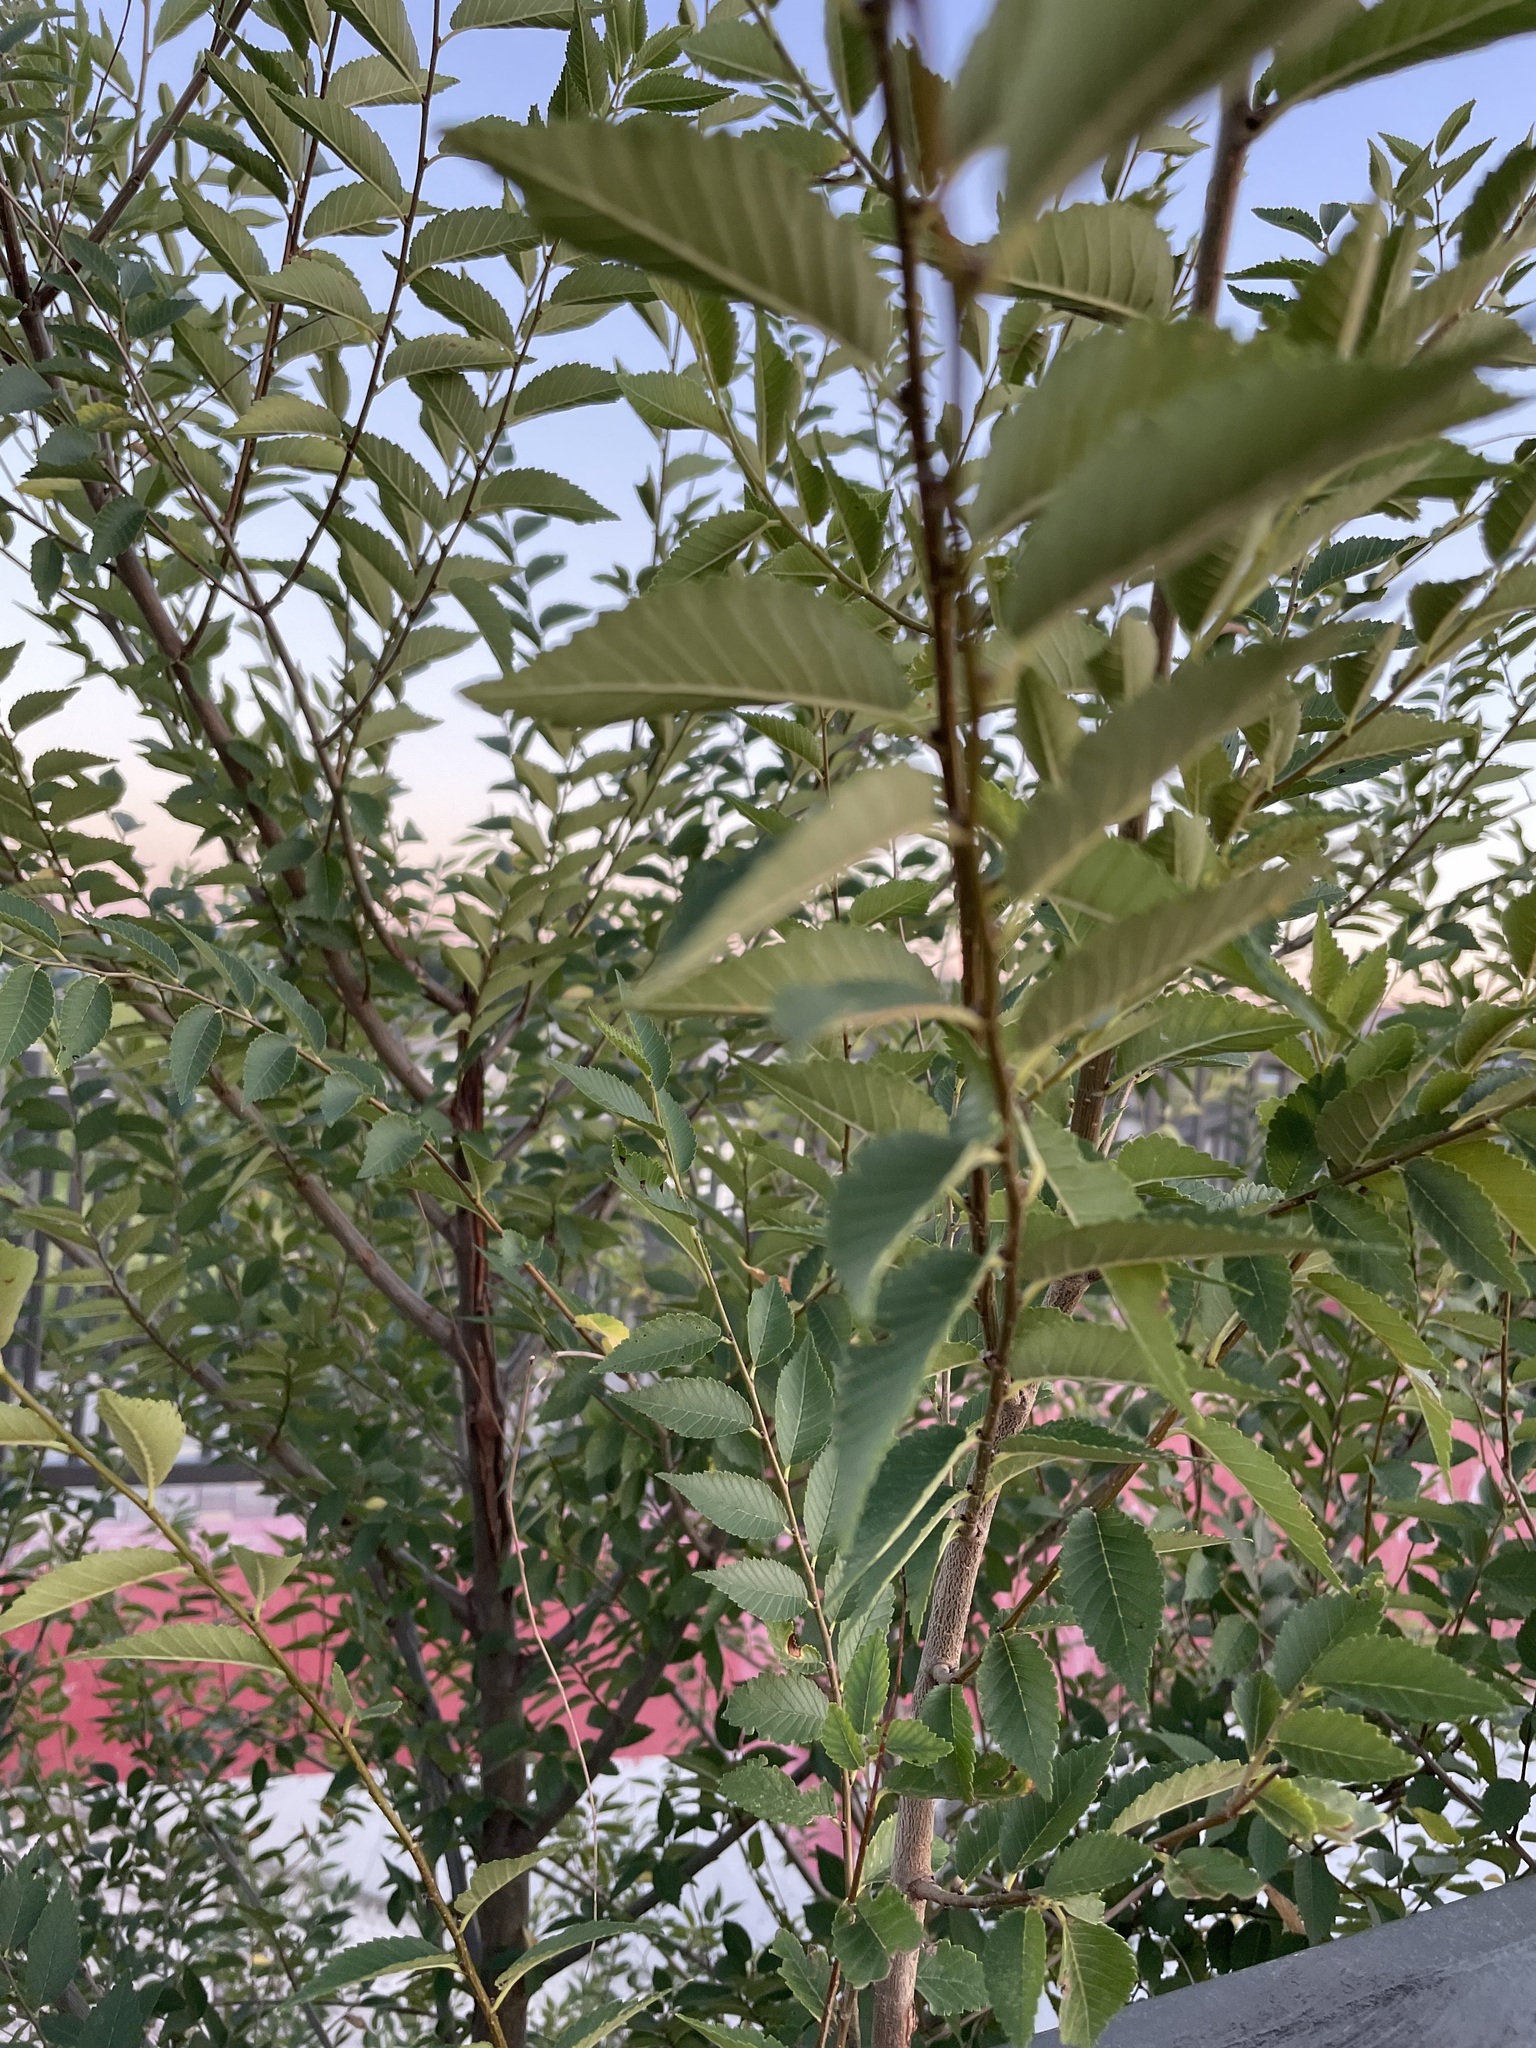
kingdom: Plantae
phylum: Tracheophyta
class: Magnoliopsida
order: Rosales
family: Ulmaceae
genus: Ulmus
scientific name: Ulmus pumila
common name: Siberian elm
